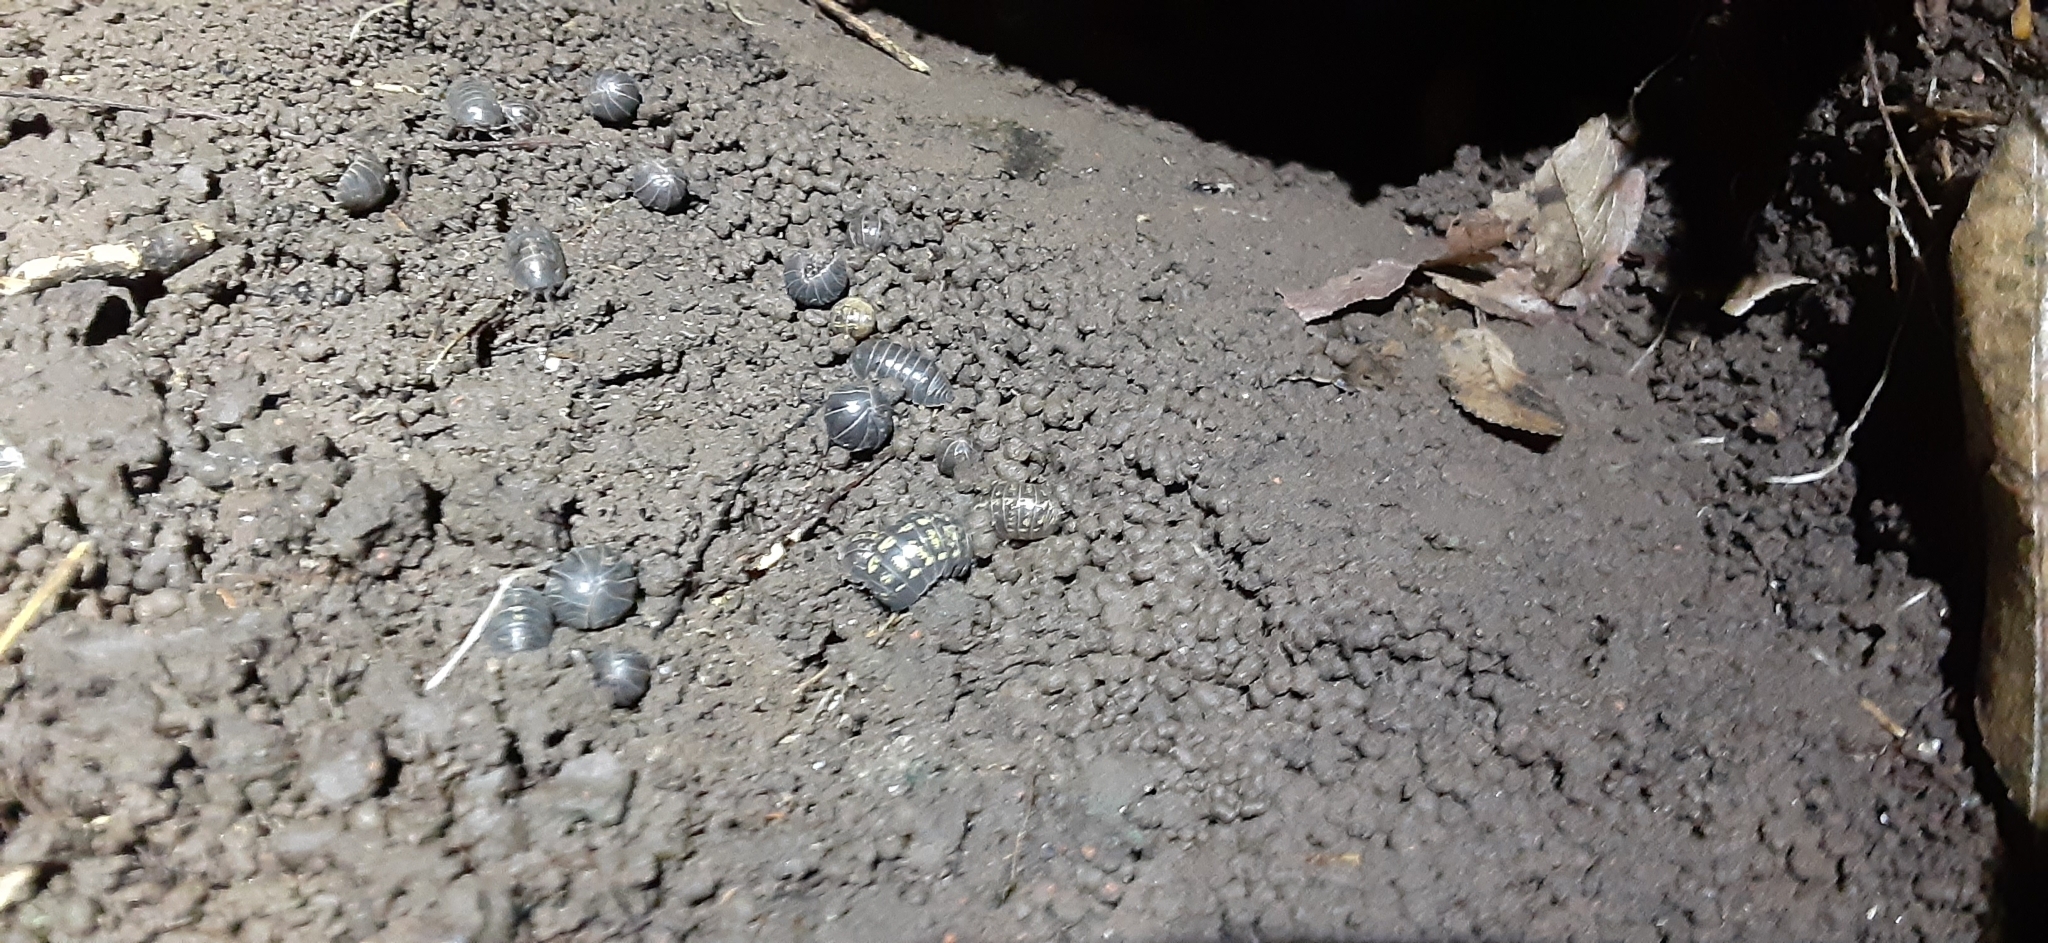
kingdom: Animalia
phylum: Arthropoda
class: Malacostraca
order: Isopoda
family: Armadillidiidae
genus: Armadillidium
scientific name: Armadillidium vulgare
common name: Common pill woodlouse
